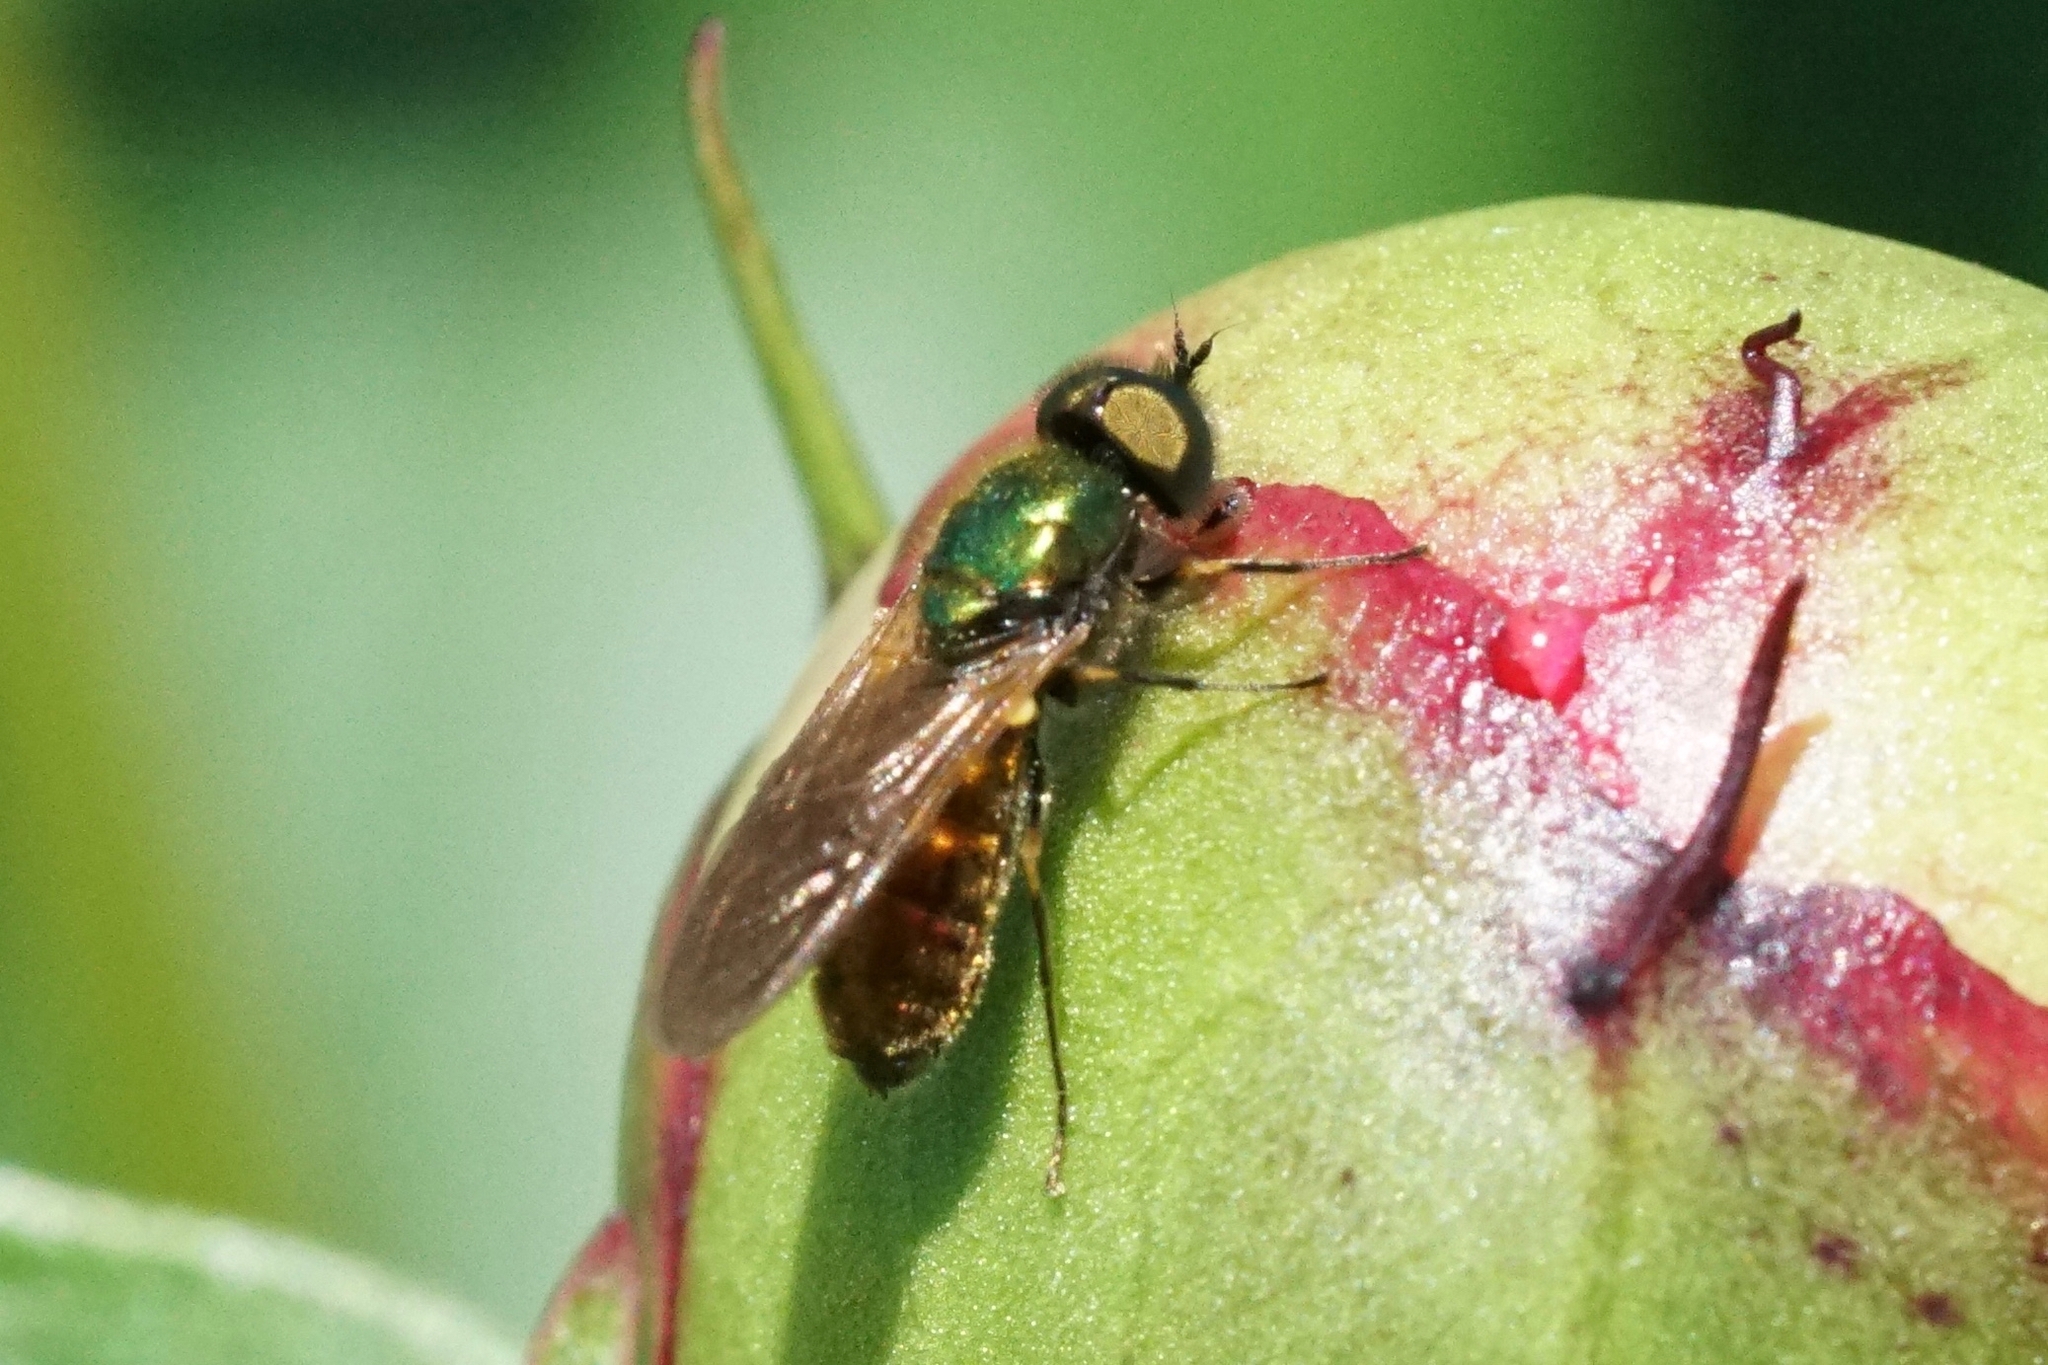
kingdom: Animalia
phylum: Arthropoda
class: Insecta
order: Diptera
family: Stratiomyidae
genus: Chloromyia
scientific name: Chloromyia formosa
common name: Soldier fly
